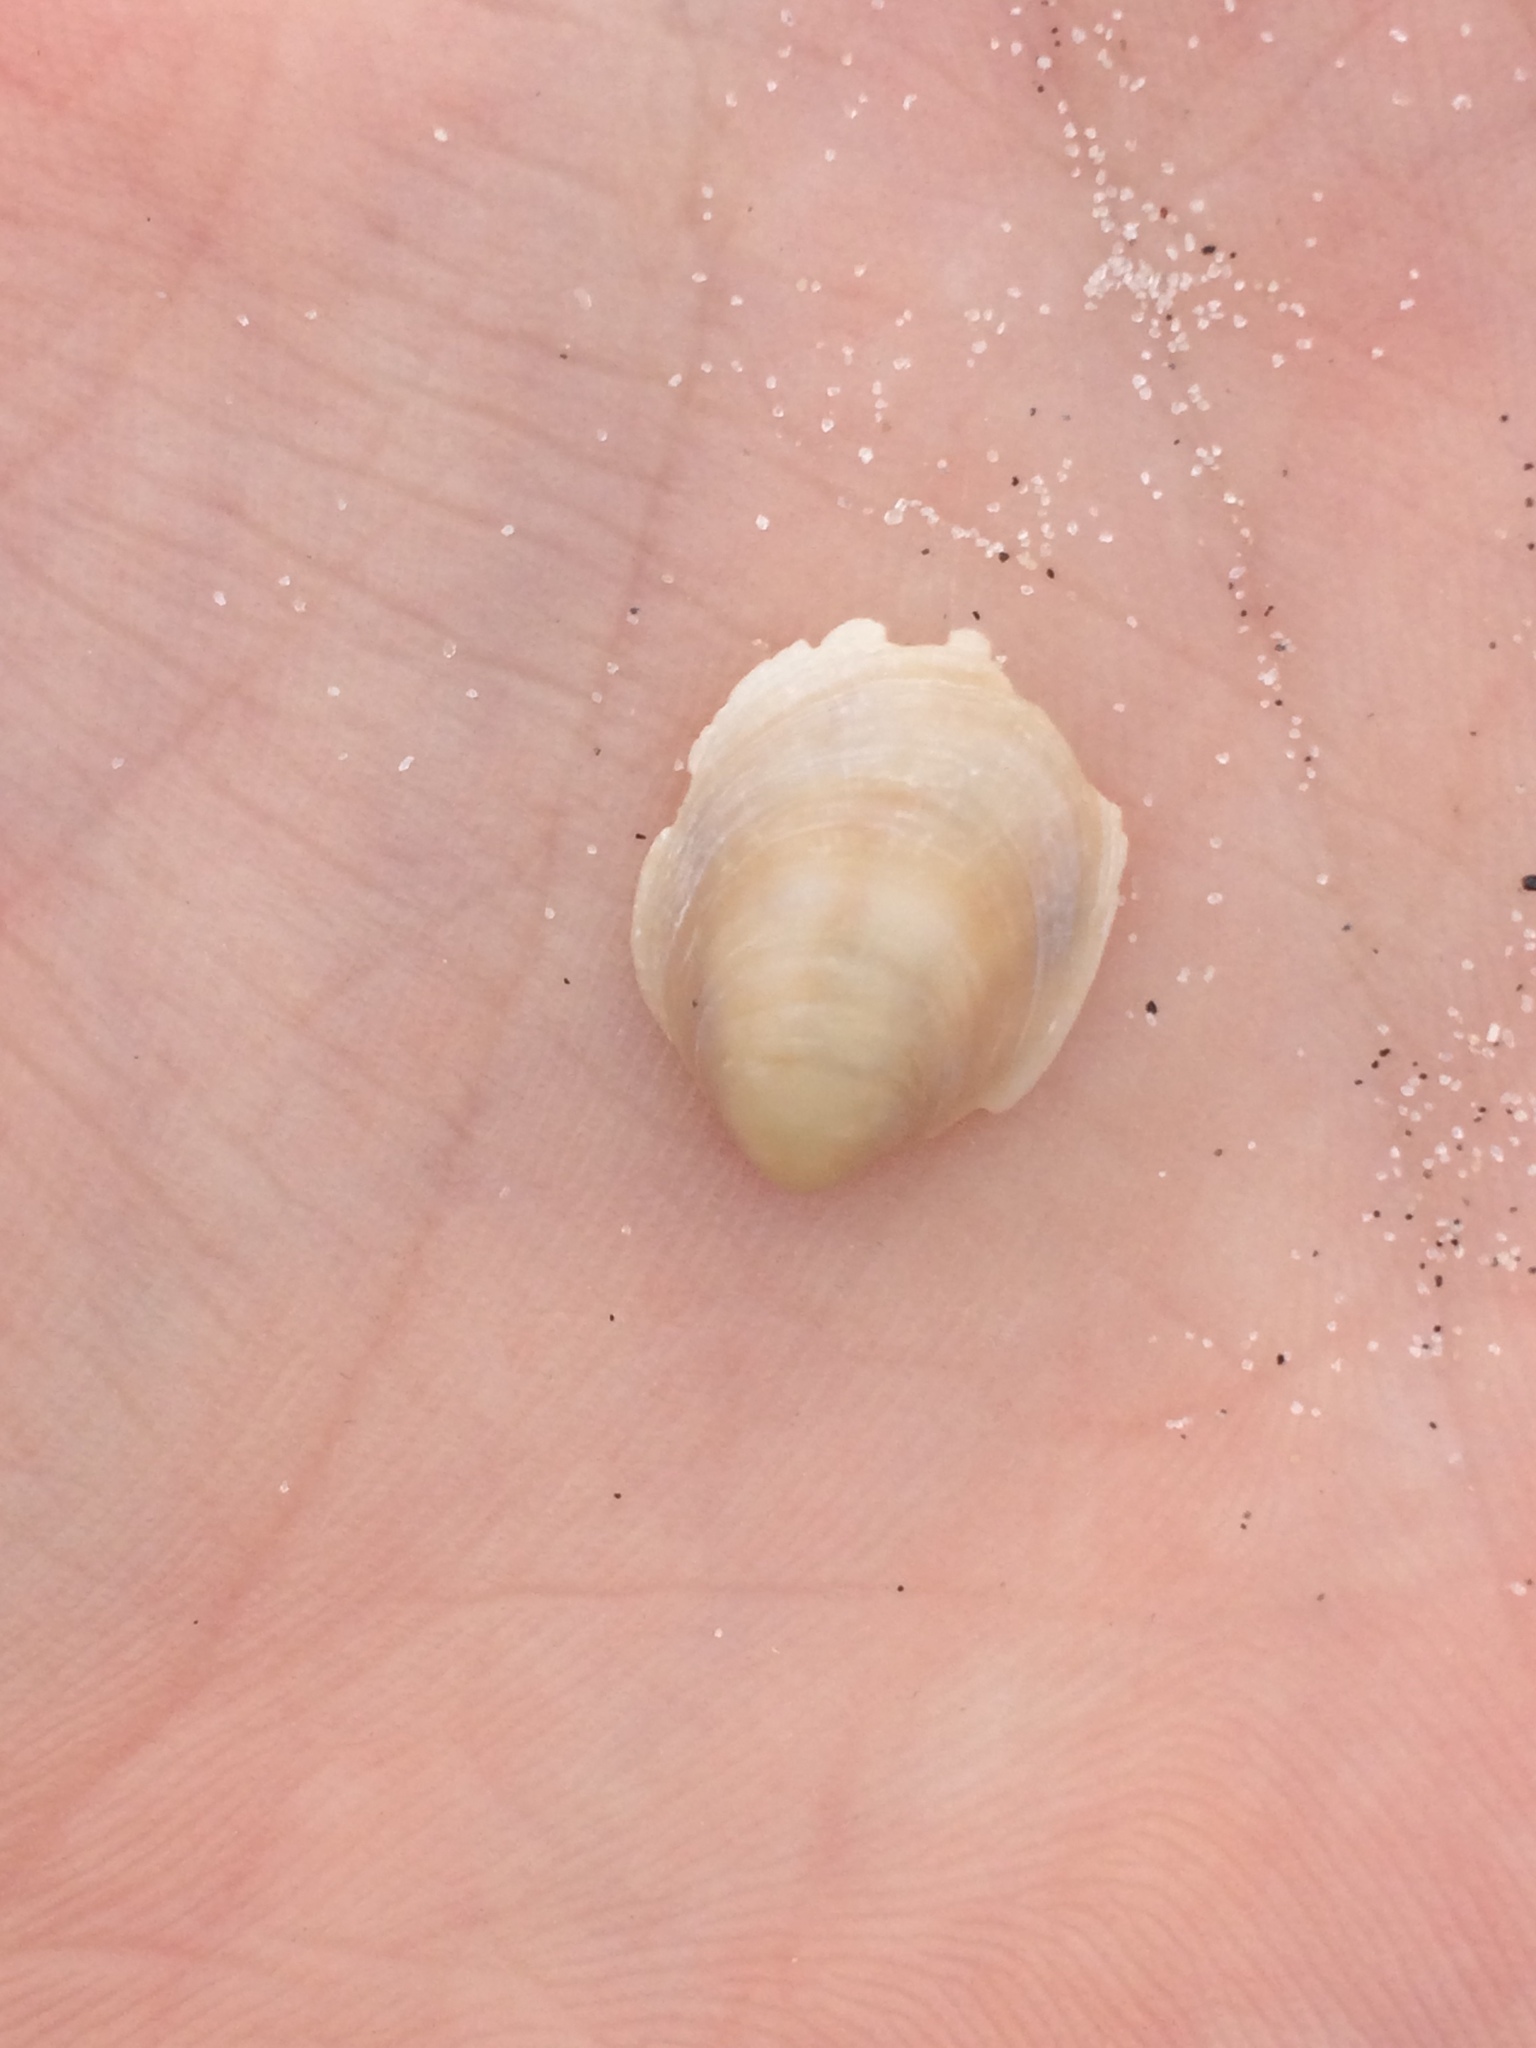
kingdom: Animalia
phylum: Mollusca
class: Gastropoda
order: Littorinimorpha
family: Calyptraeidae
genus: Crepidula
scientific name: Crepidula fornicata
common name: Slipper limpet
